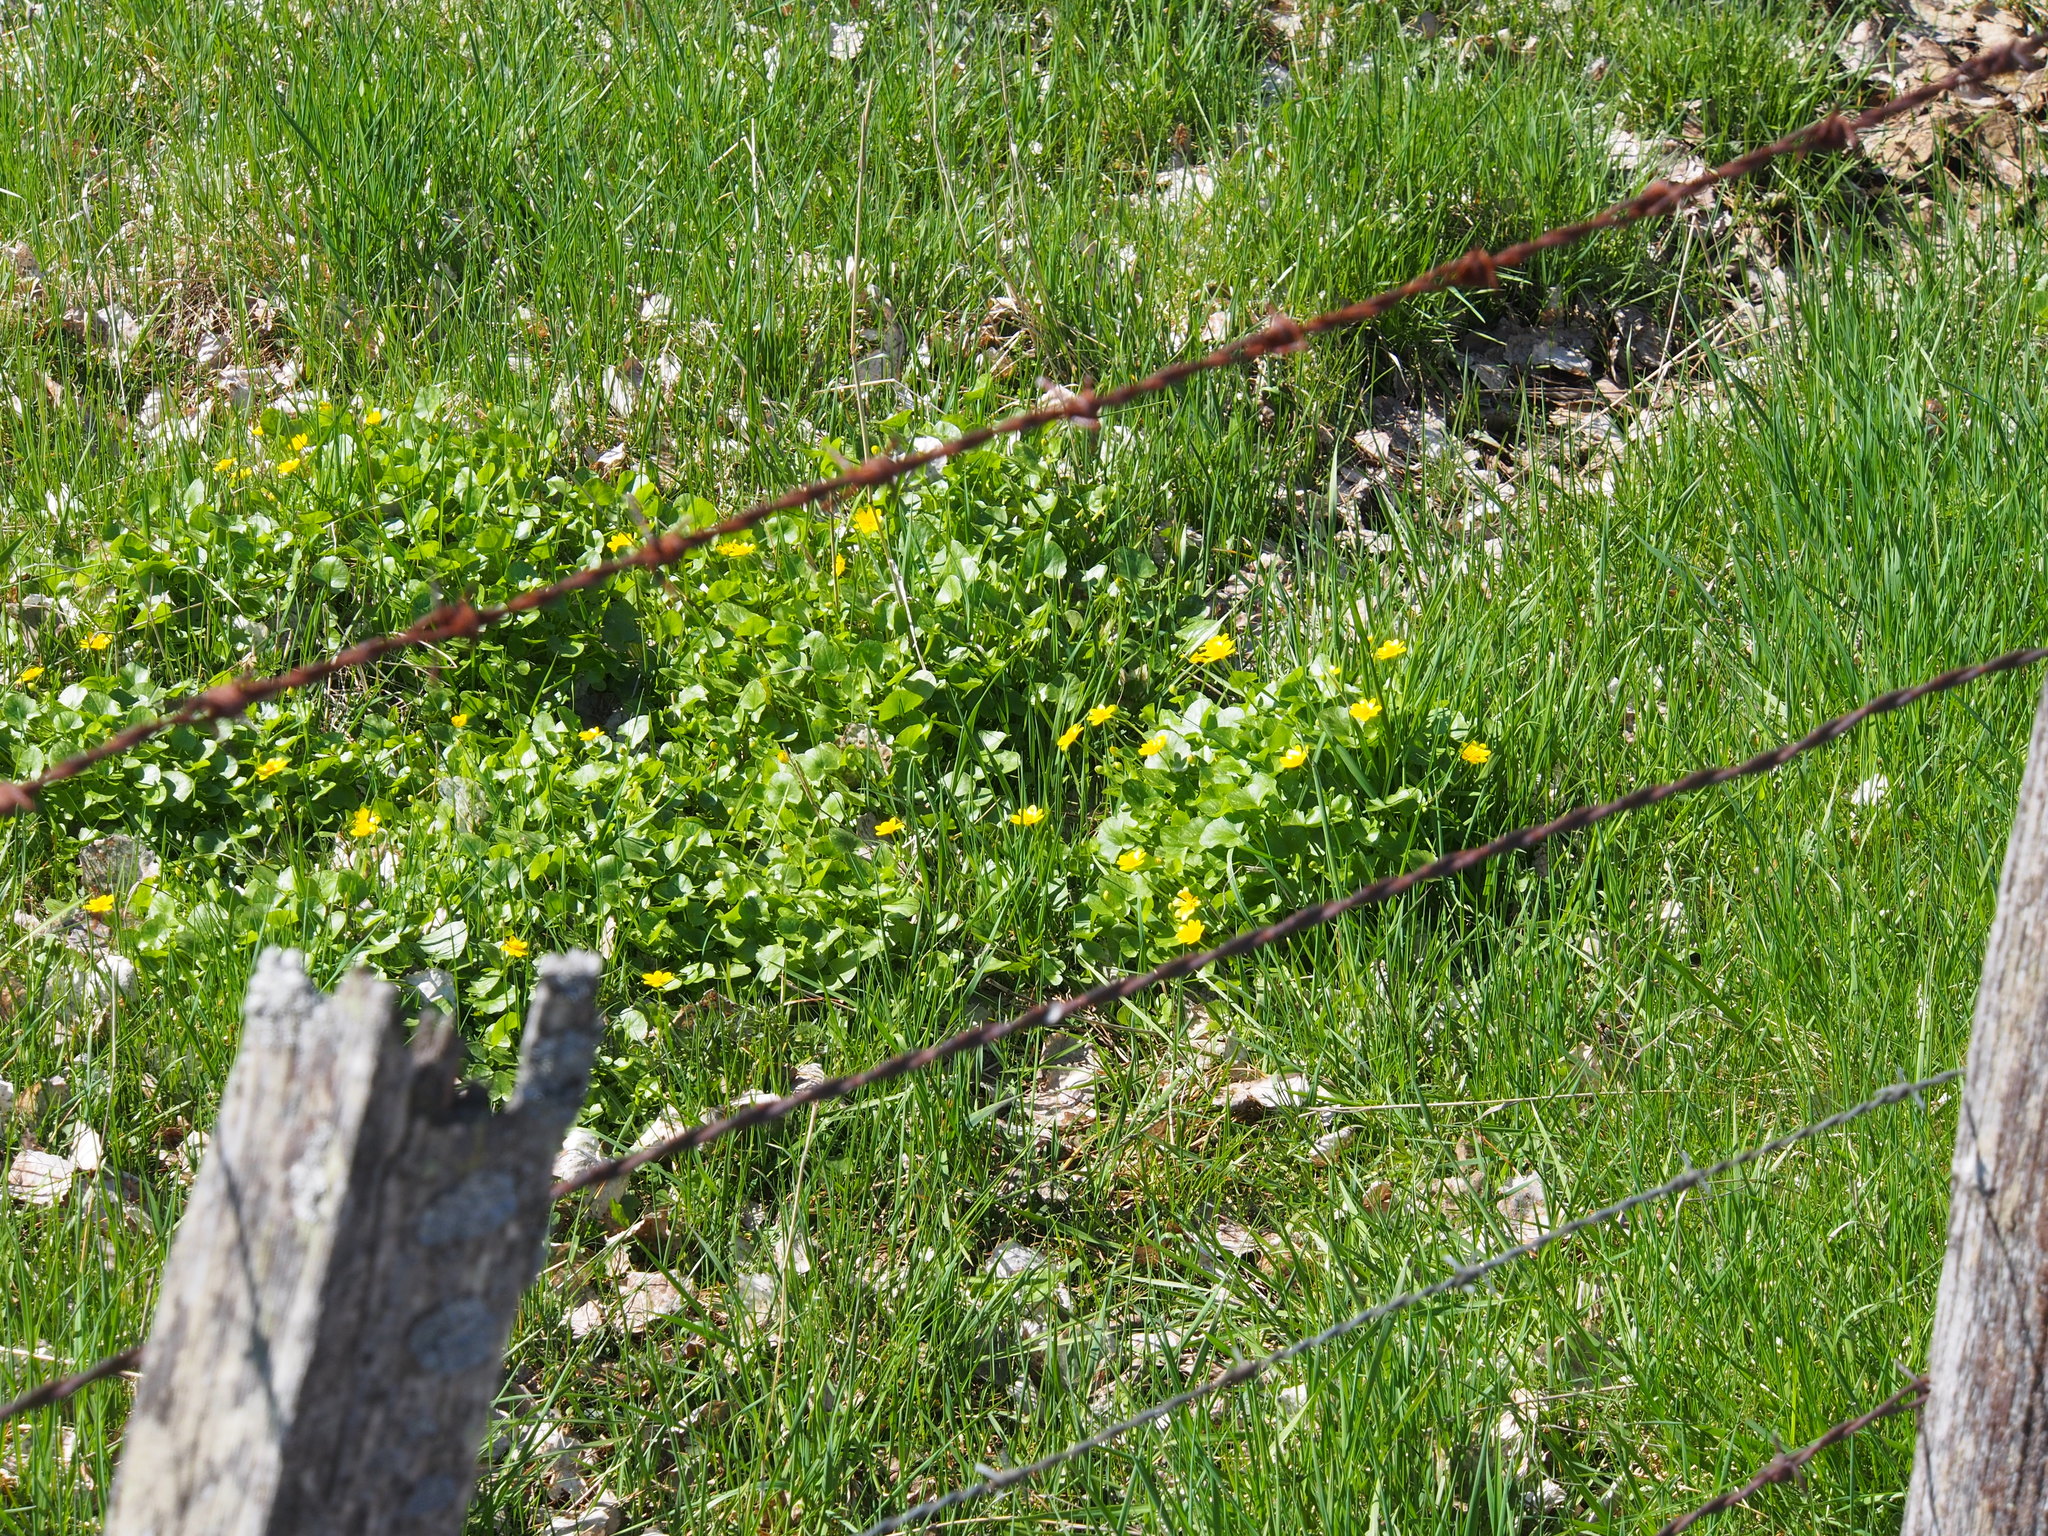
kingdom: Plantae
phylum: Tracheophyta
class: Magnoliopsida
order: Ranunculales
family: Ranunculaceae
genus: Caltha
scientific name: Caltha palustris
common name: Marsh marigold
